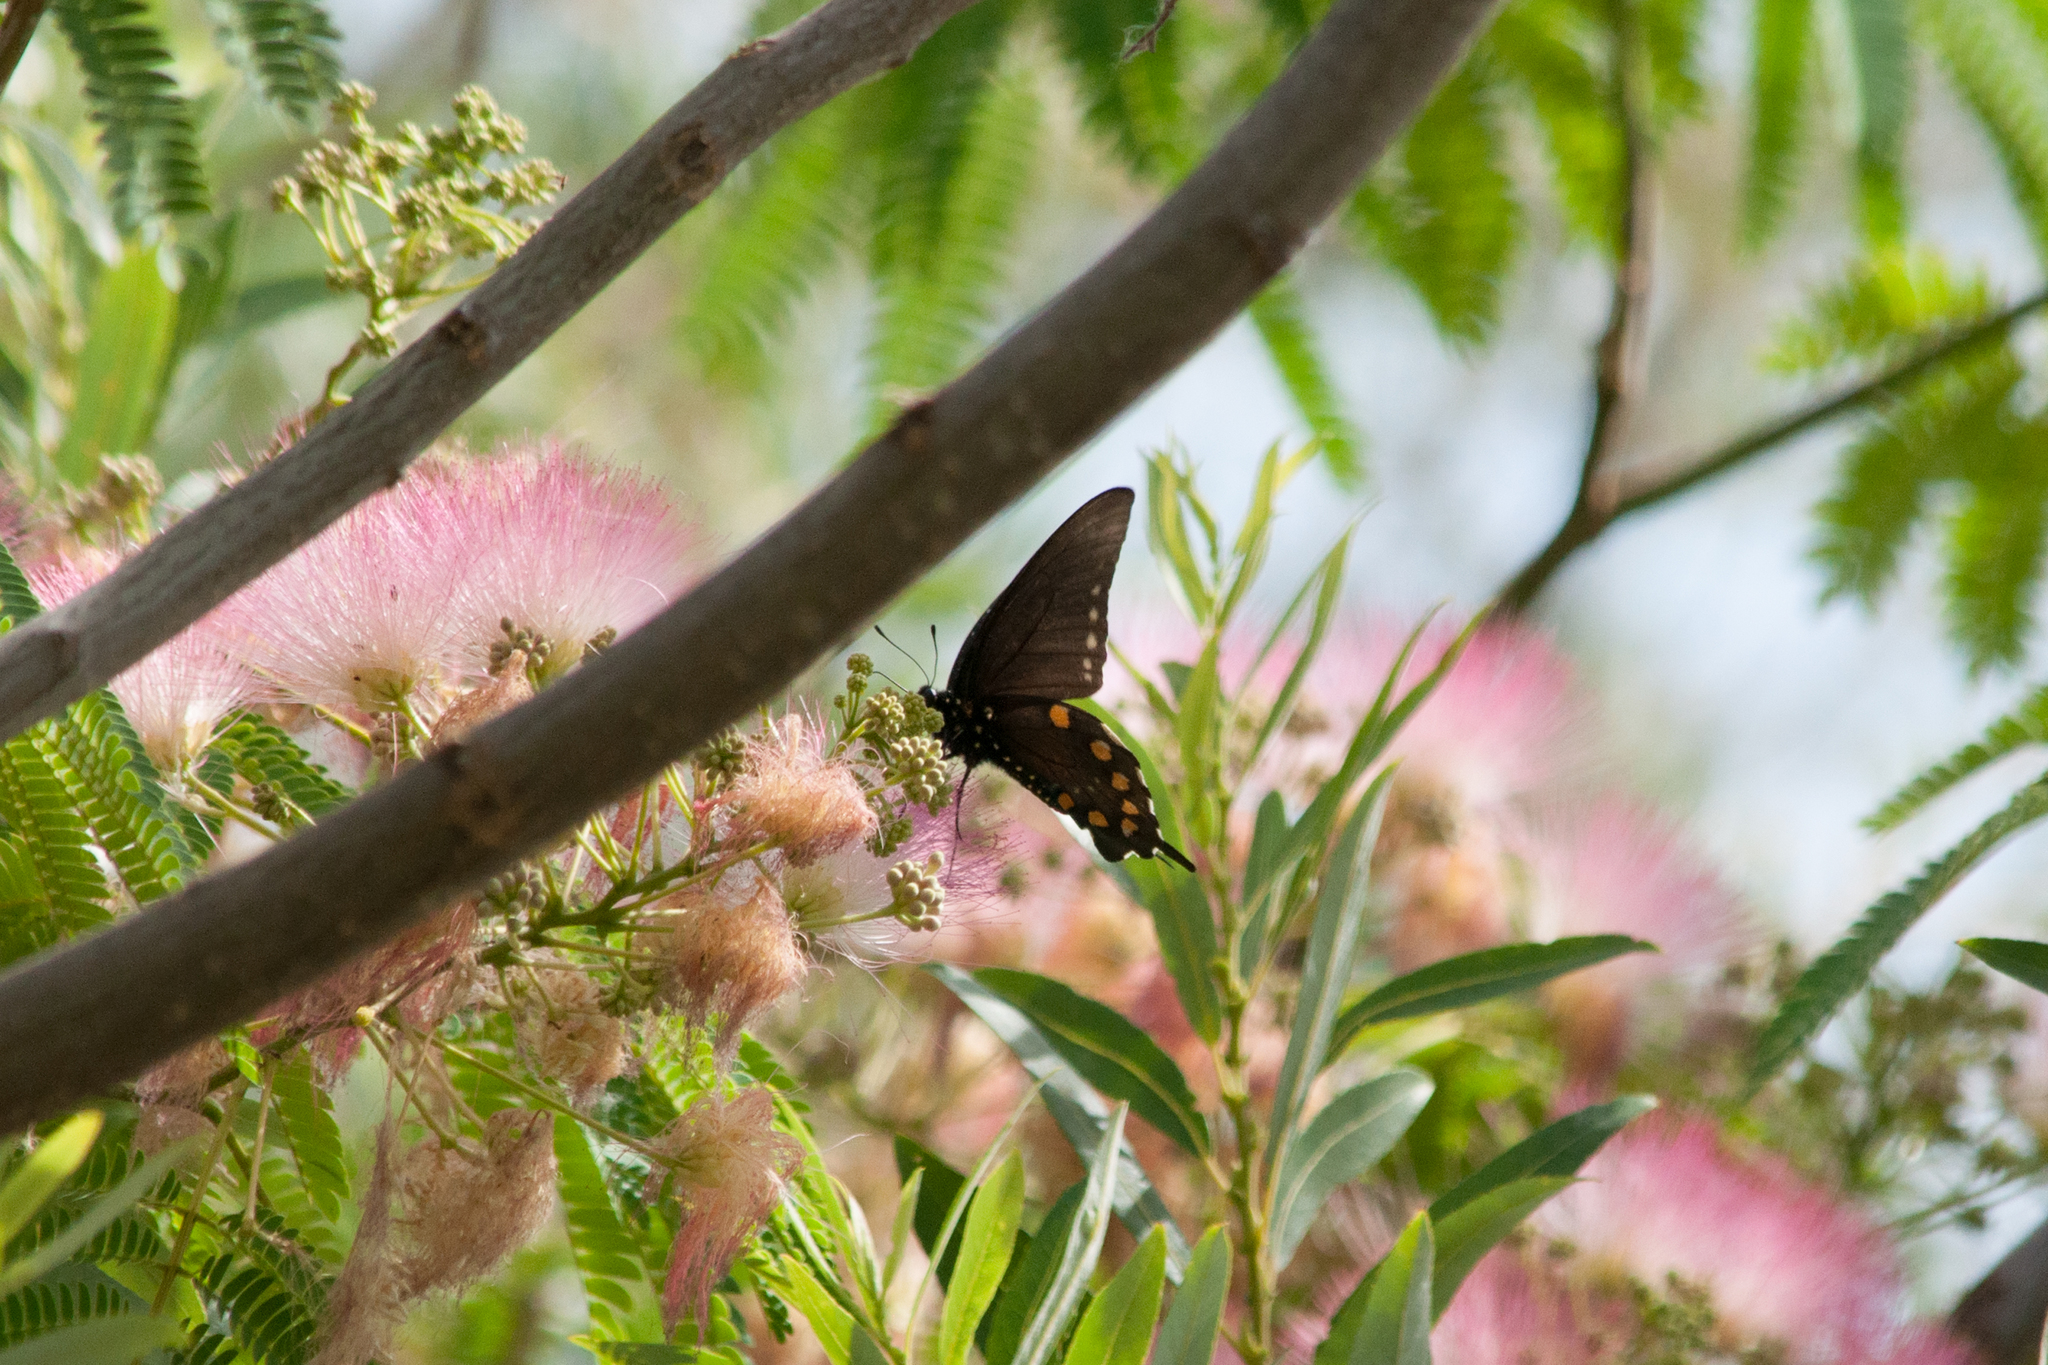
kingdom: Plantae
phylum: Tracheophyta
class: Magnoliopsida
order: Fabales
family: Fabaceae
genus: Albizia
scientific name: Albizia julibrissin
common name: Silktree
